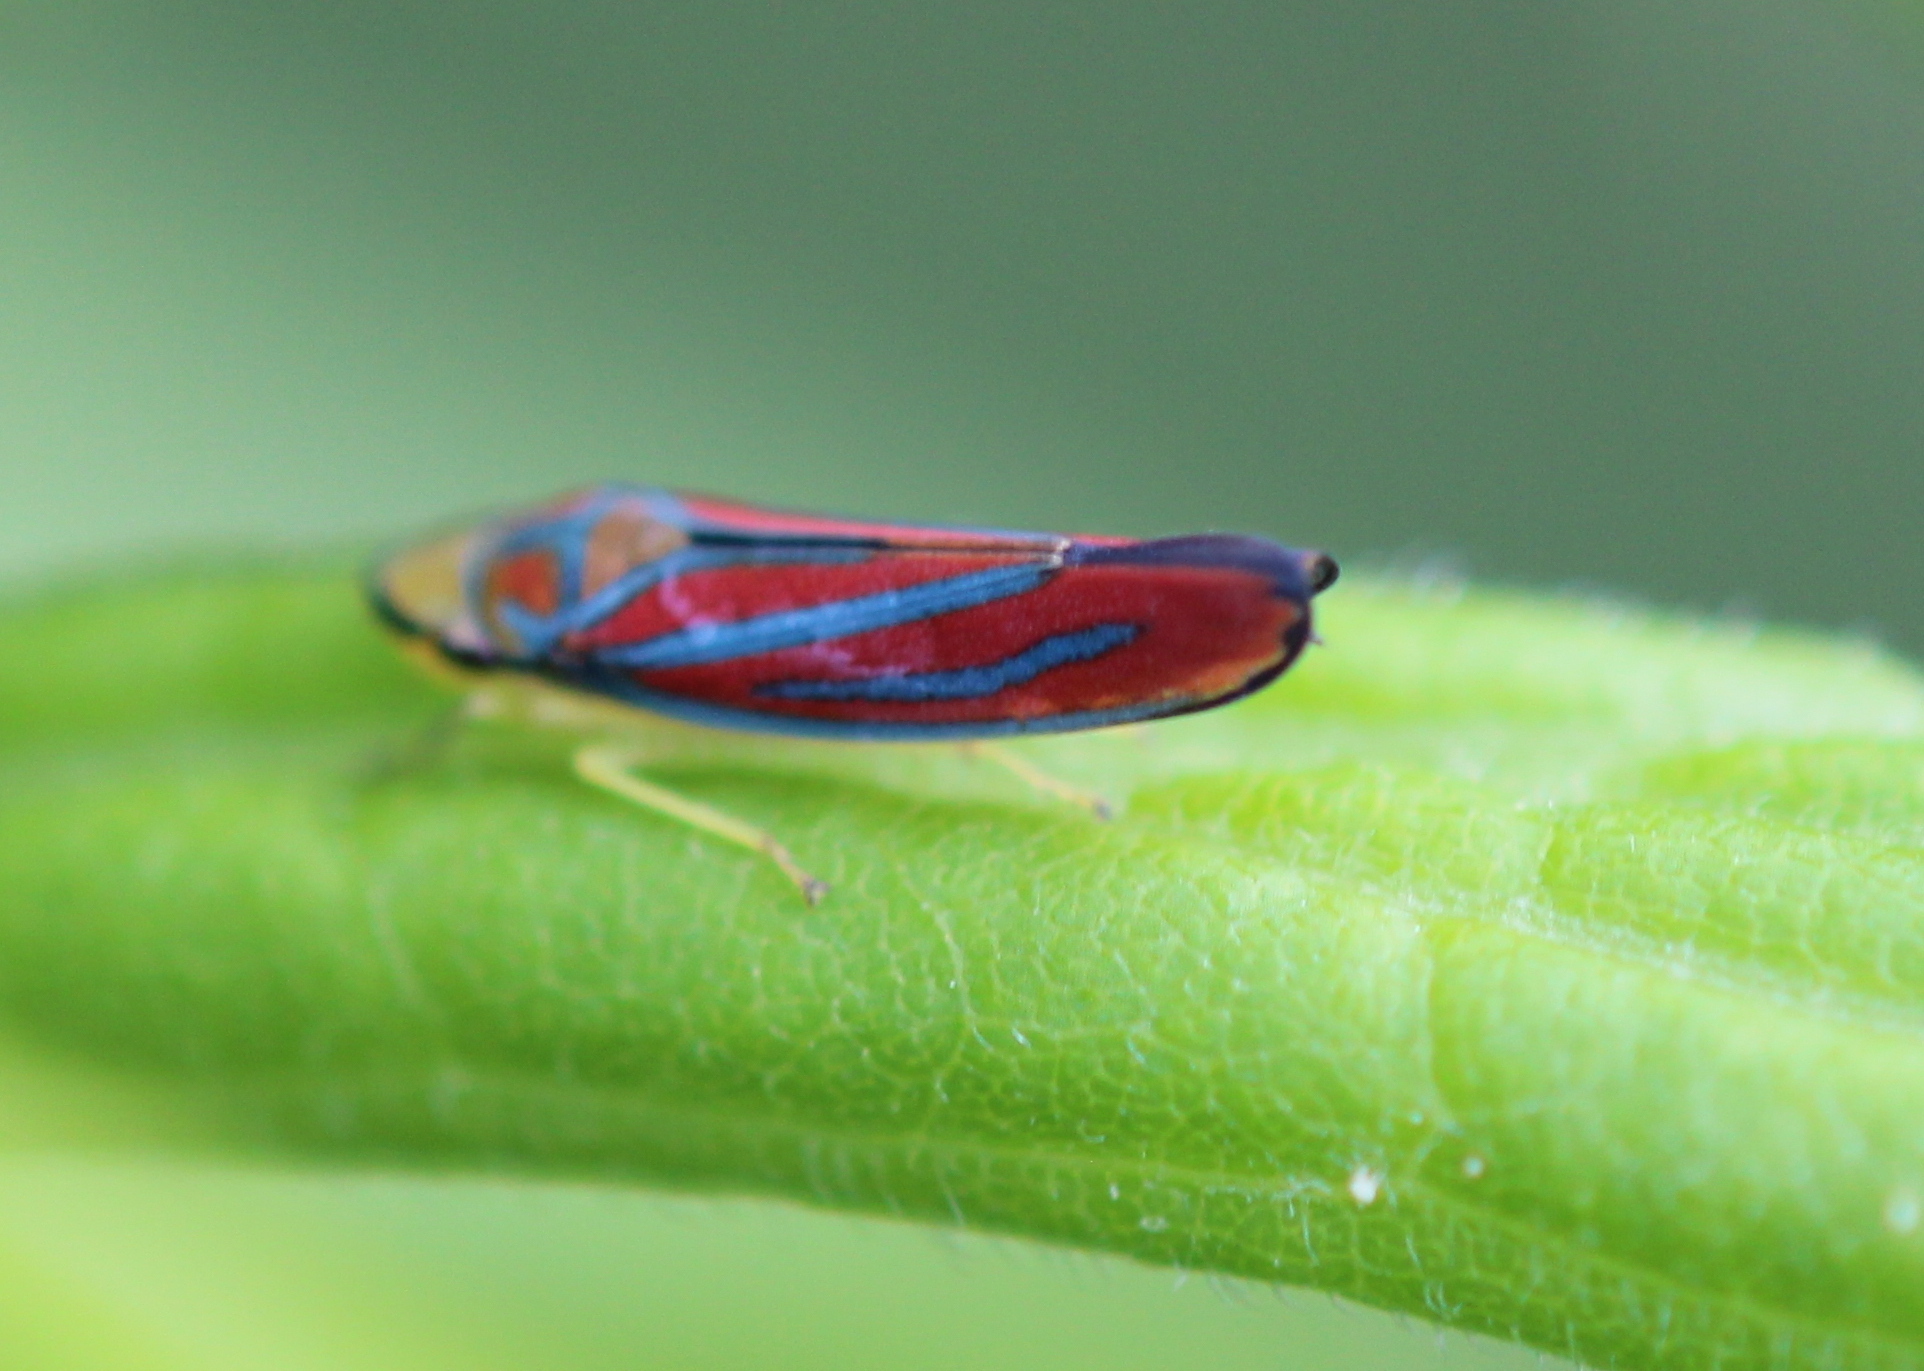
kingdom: Animalia
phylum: Arthropoda
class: Insecta
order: Hemiptera
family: Cicadellidae
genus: Graphocephala
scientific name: Graphocephala coccinea
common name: Candy-striped leafhopper
